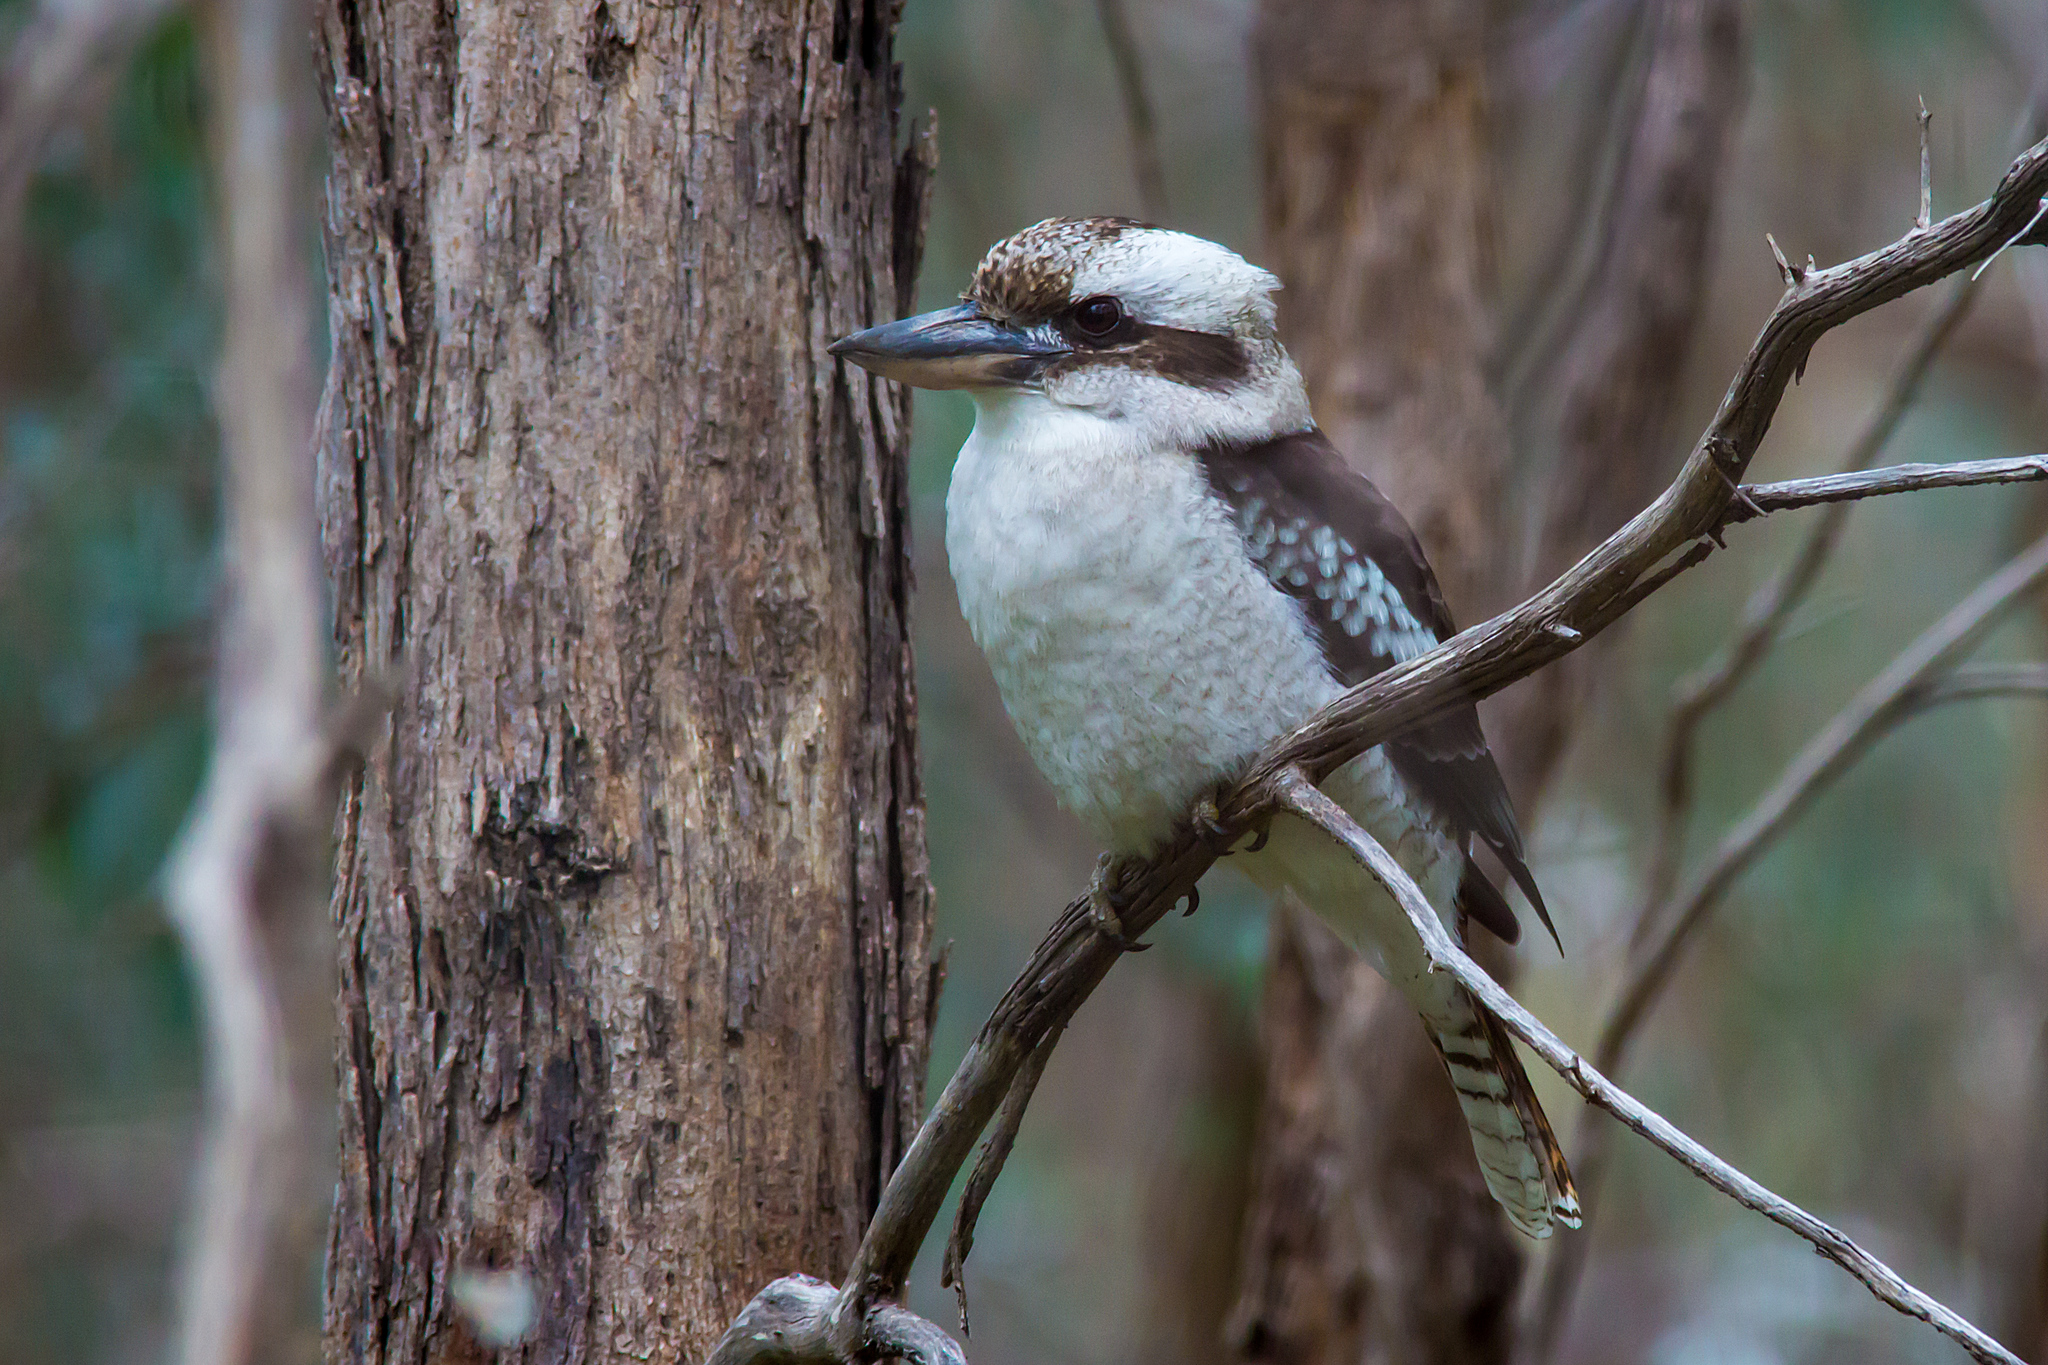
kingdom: Animalia
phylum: Chordata
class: Aves
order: Coraciiformes
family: Alcedinidae
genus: Dacelo
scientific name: Dacelo novaeguineae
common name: Laughing kookaburra
